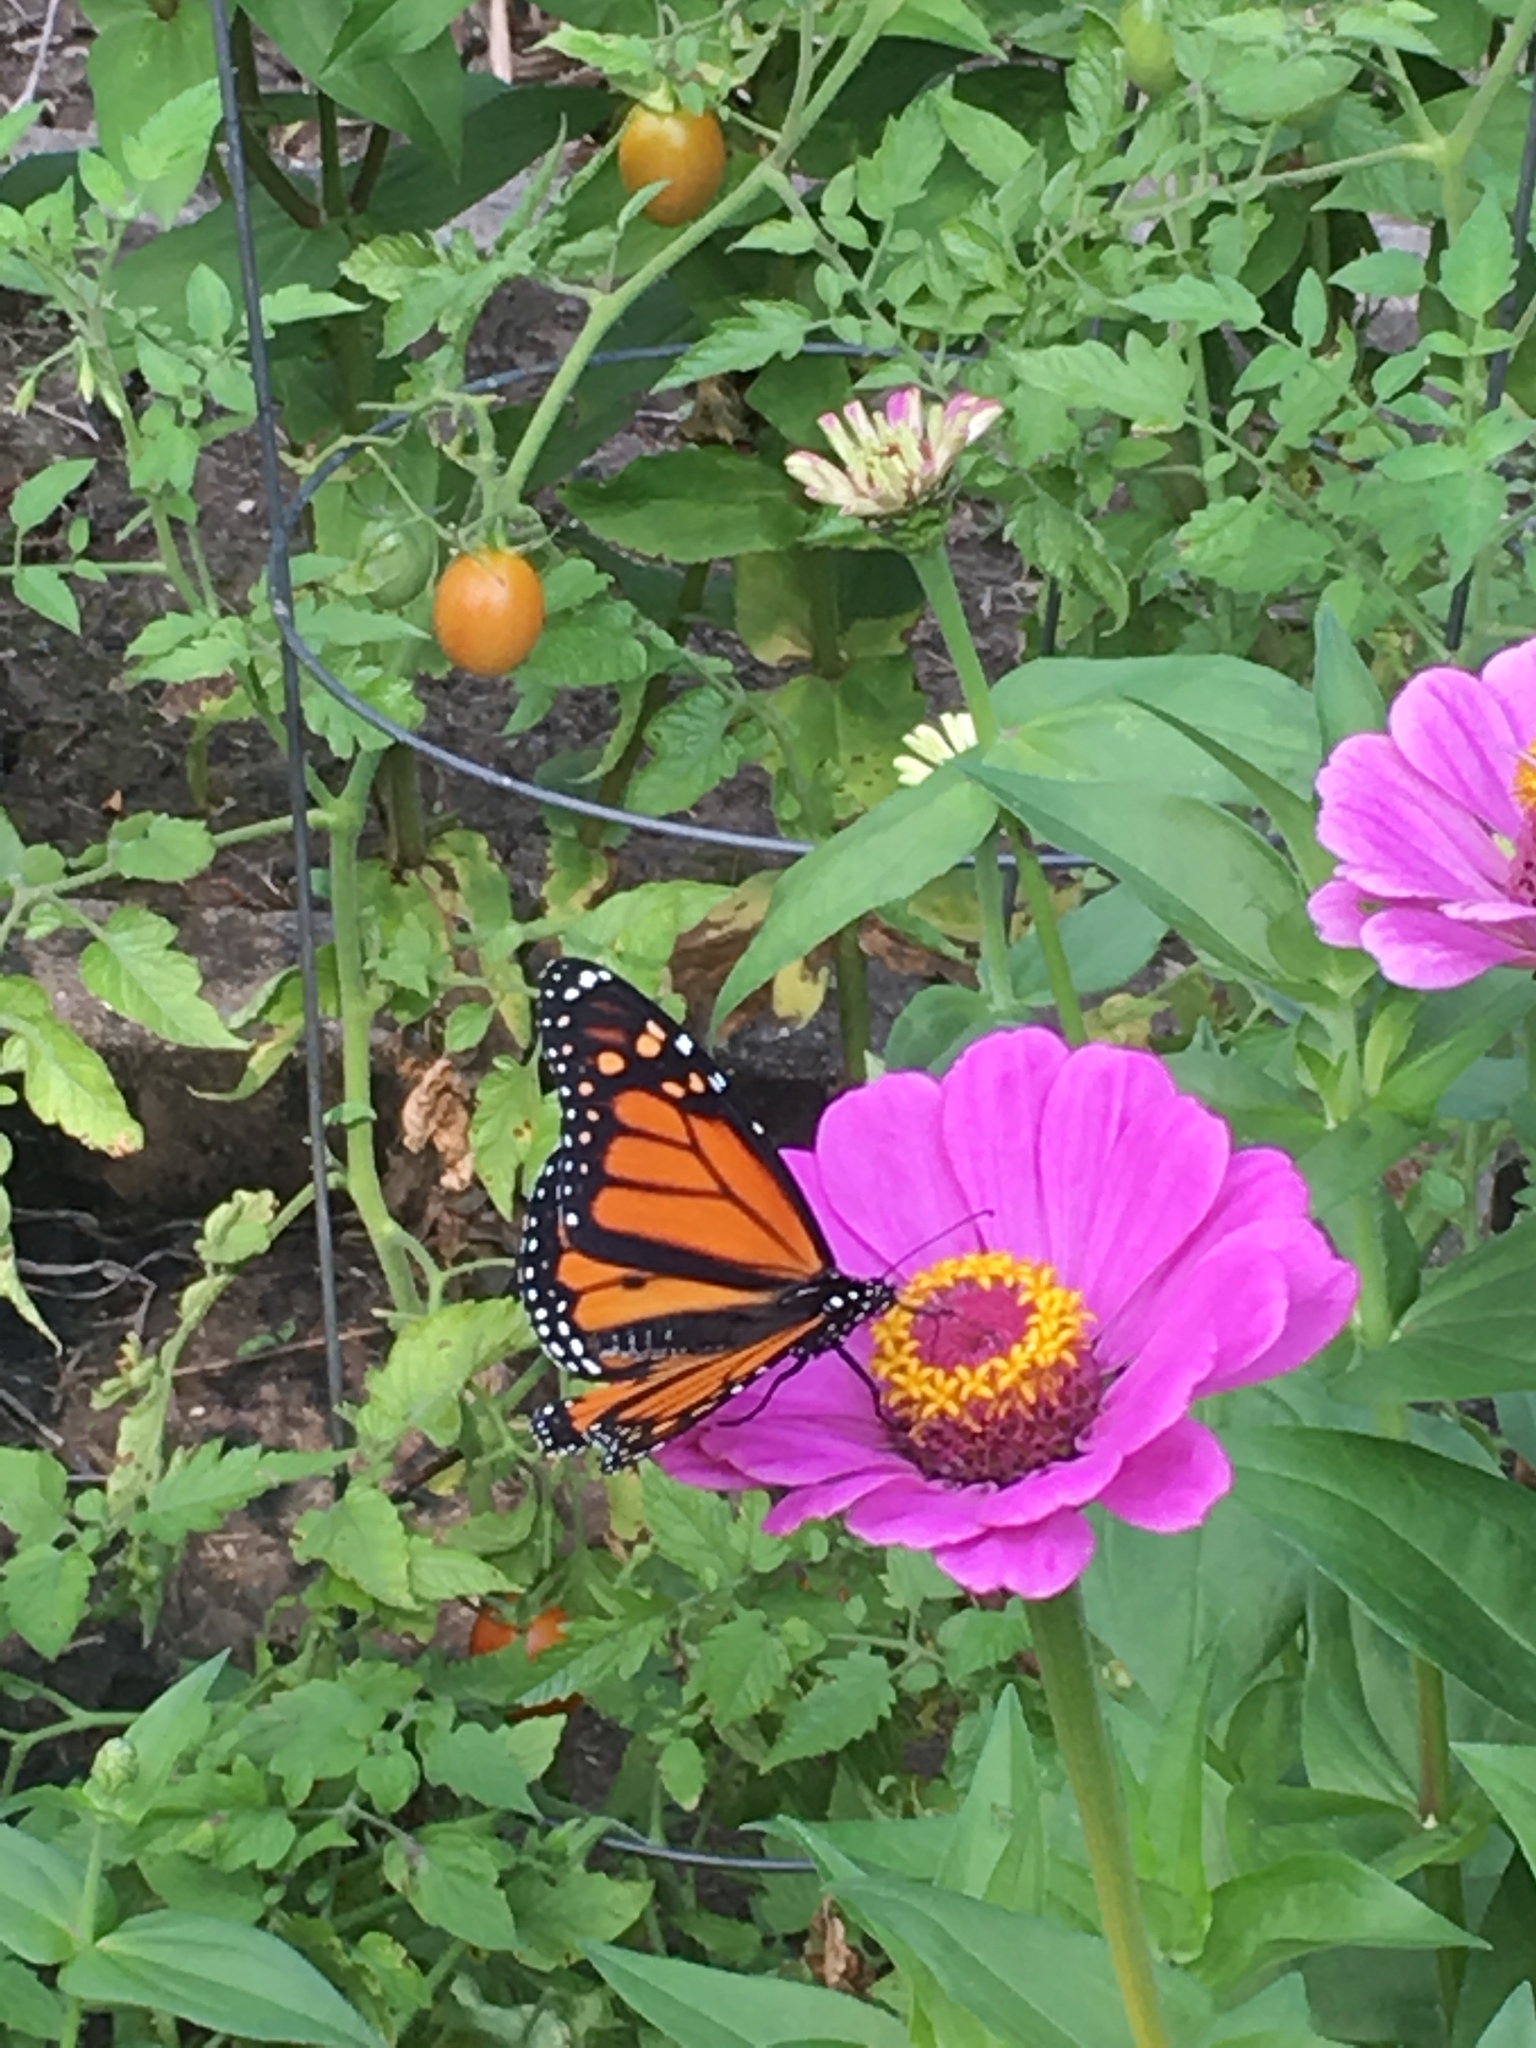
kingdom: Animalia
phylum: Arthropoda
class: Insecta
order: Lepidoptera
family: Nymphalidae
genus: Danaus
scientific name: Danaus plexippus
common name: Monarch
